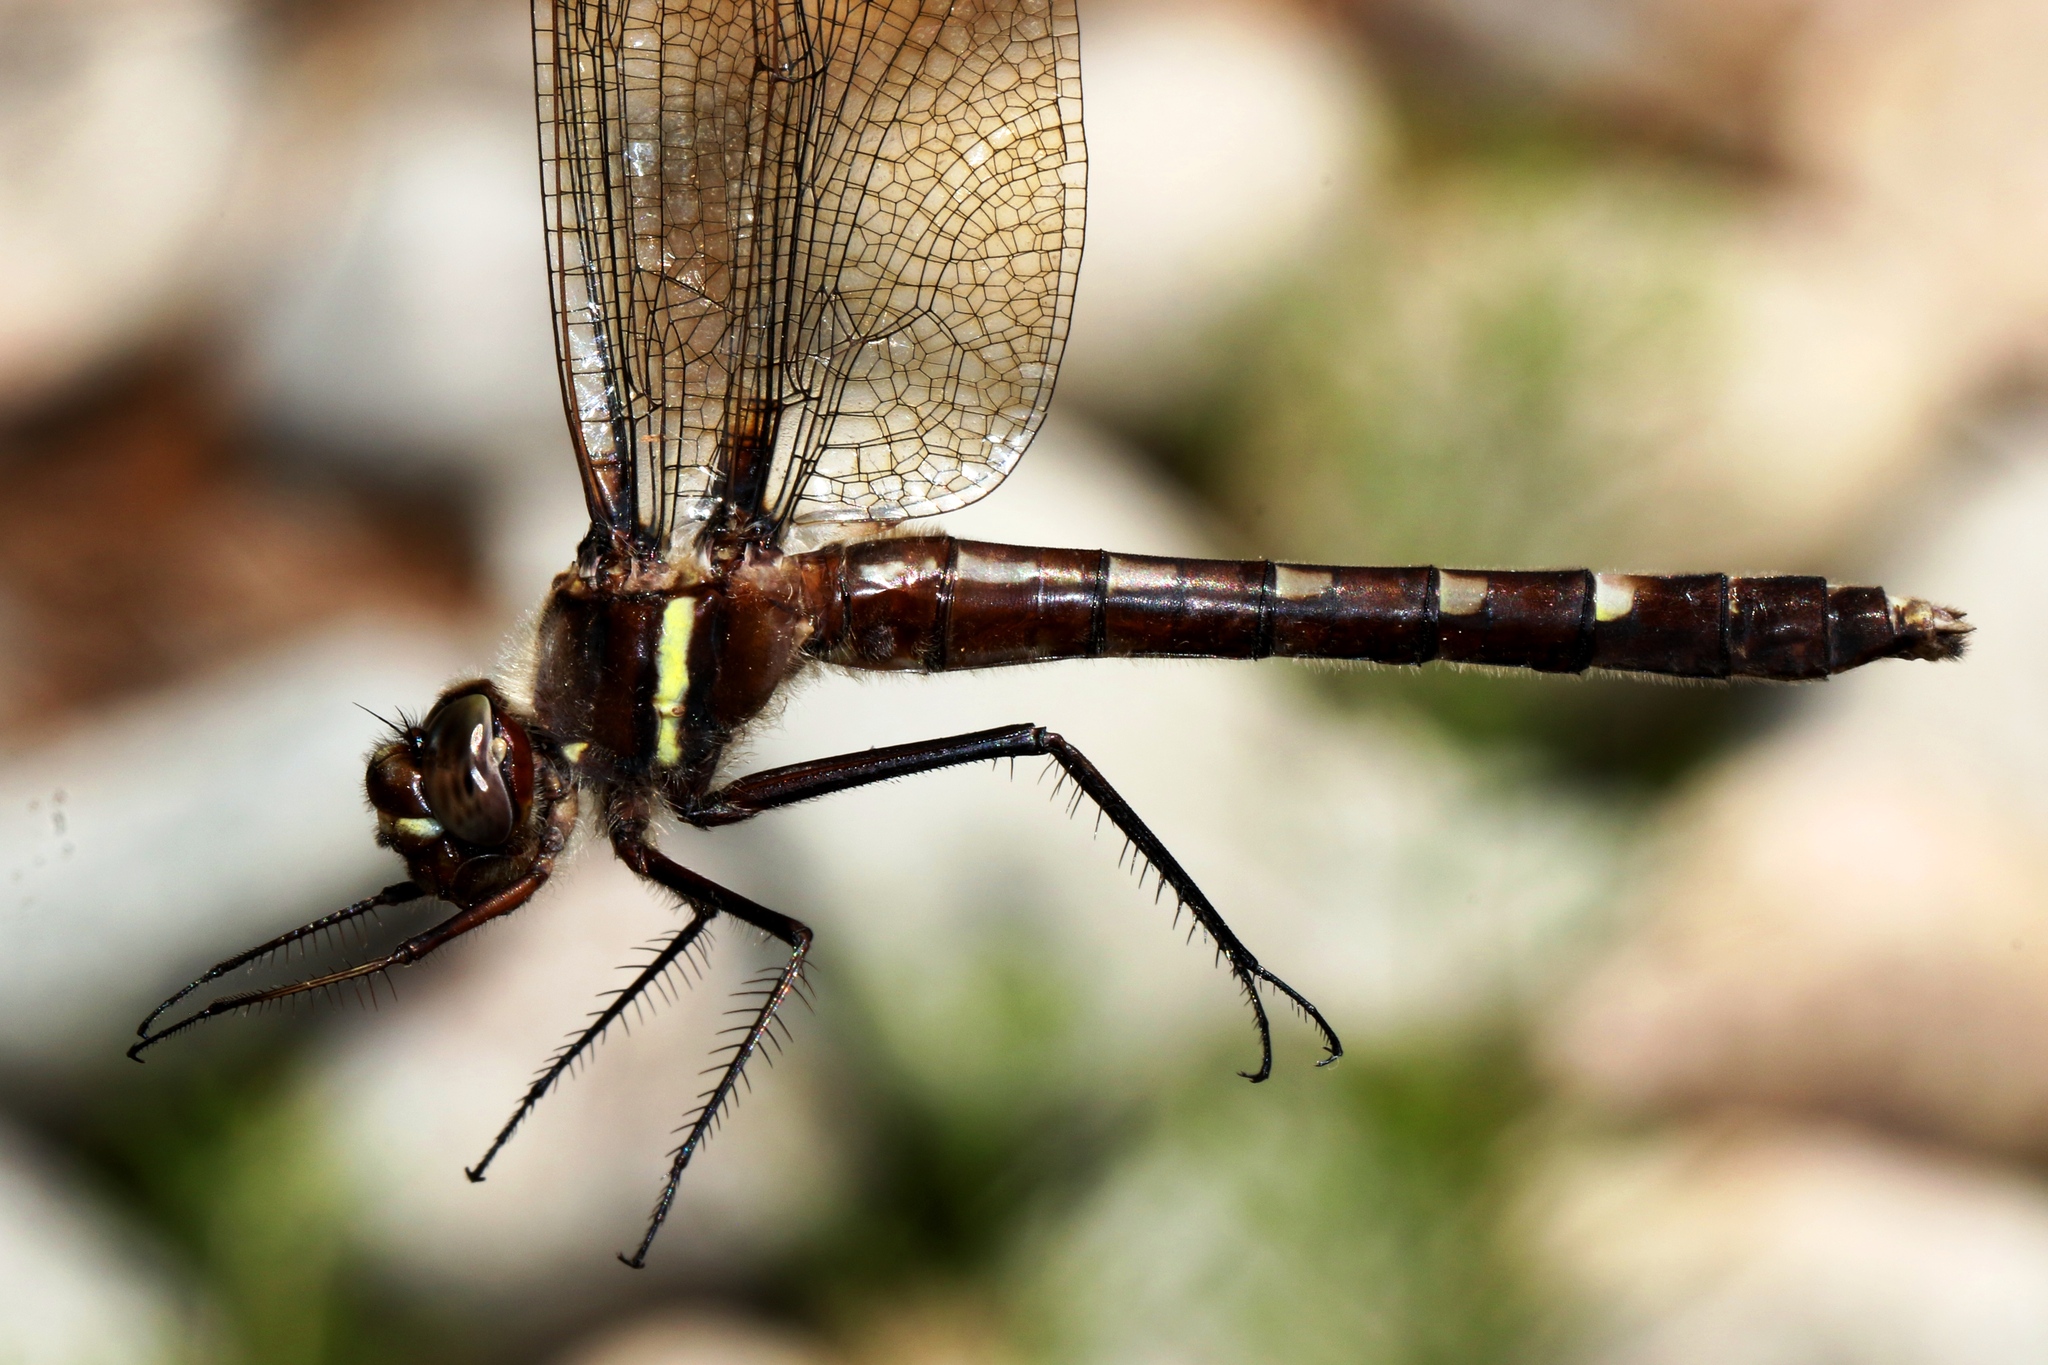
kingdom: Animalia
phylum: Arthropoda
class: Insecta
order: Odonata
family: Macromiidae
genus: Didymops
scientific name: Didymops transversa
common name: Stream cruiser
